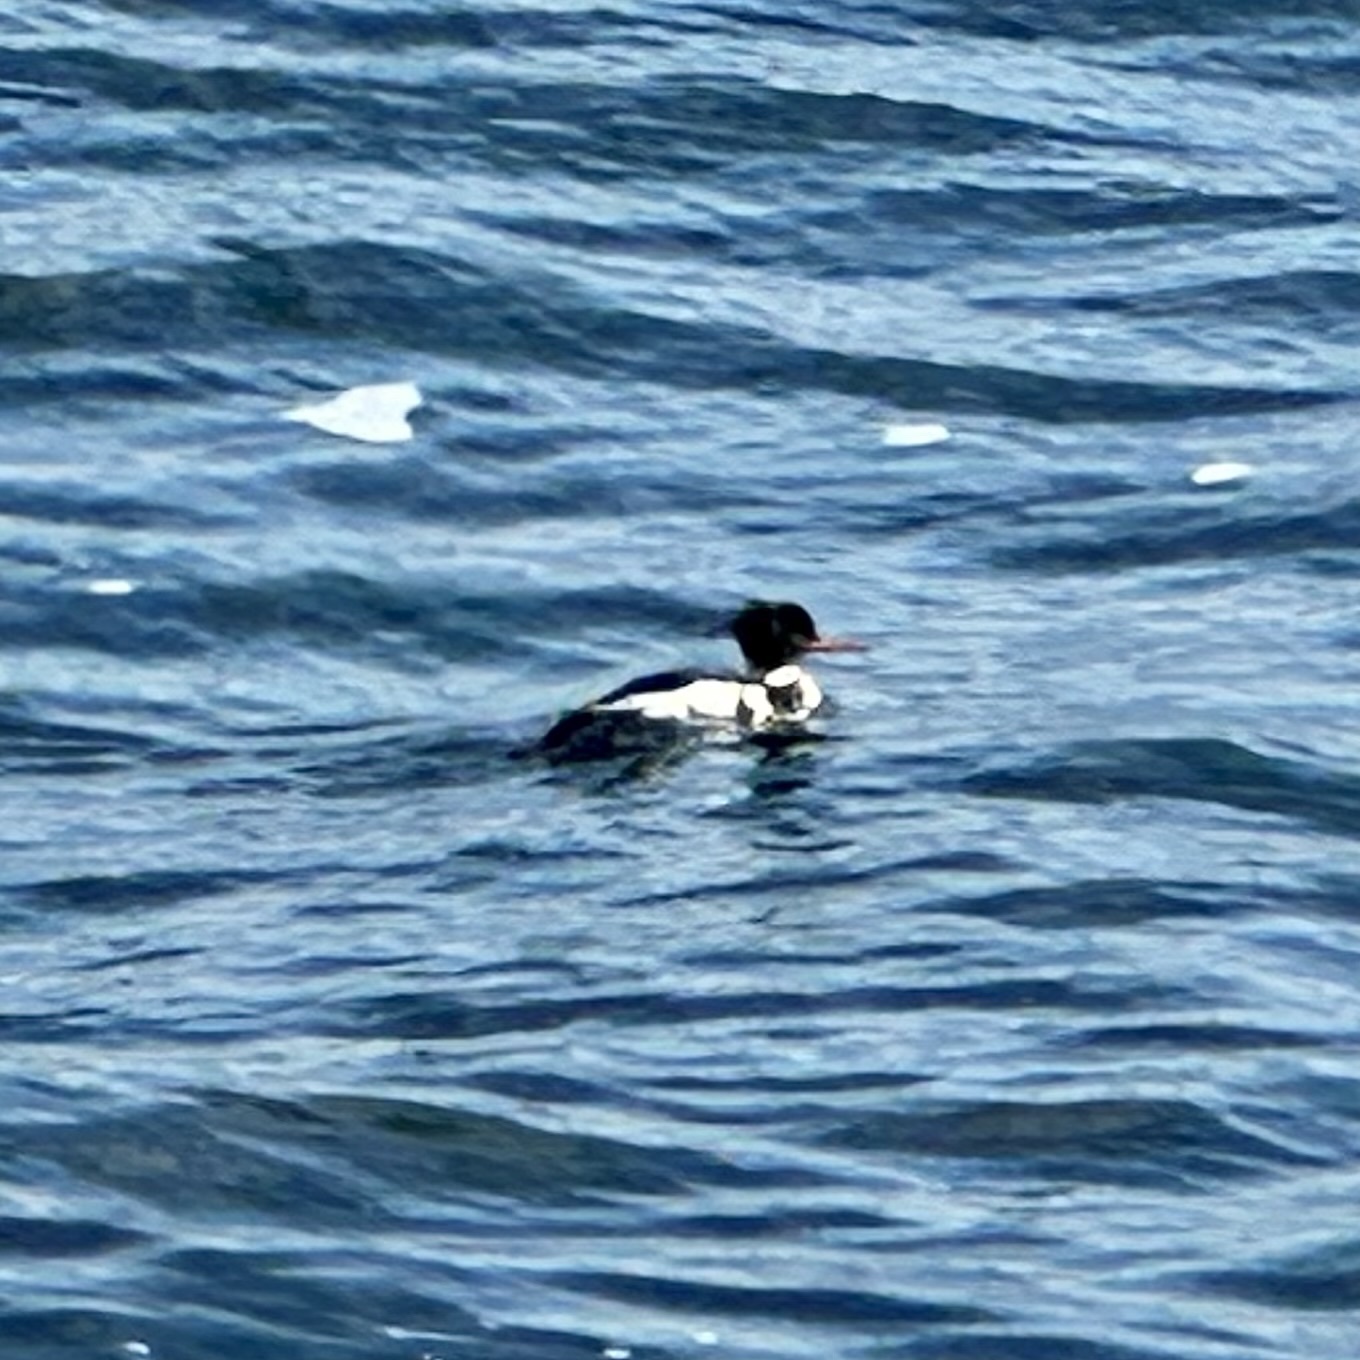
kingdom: Animalia
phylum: Chordata
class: Aves
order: Anseriformes
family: Anatidae
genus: Mergus
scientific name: Mergus serrator
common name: Red-breasted merganser
